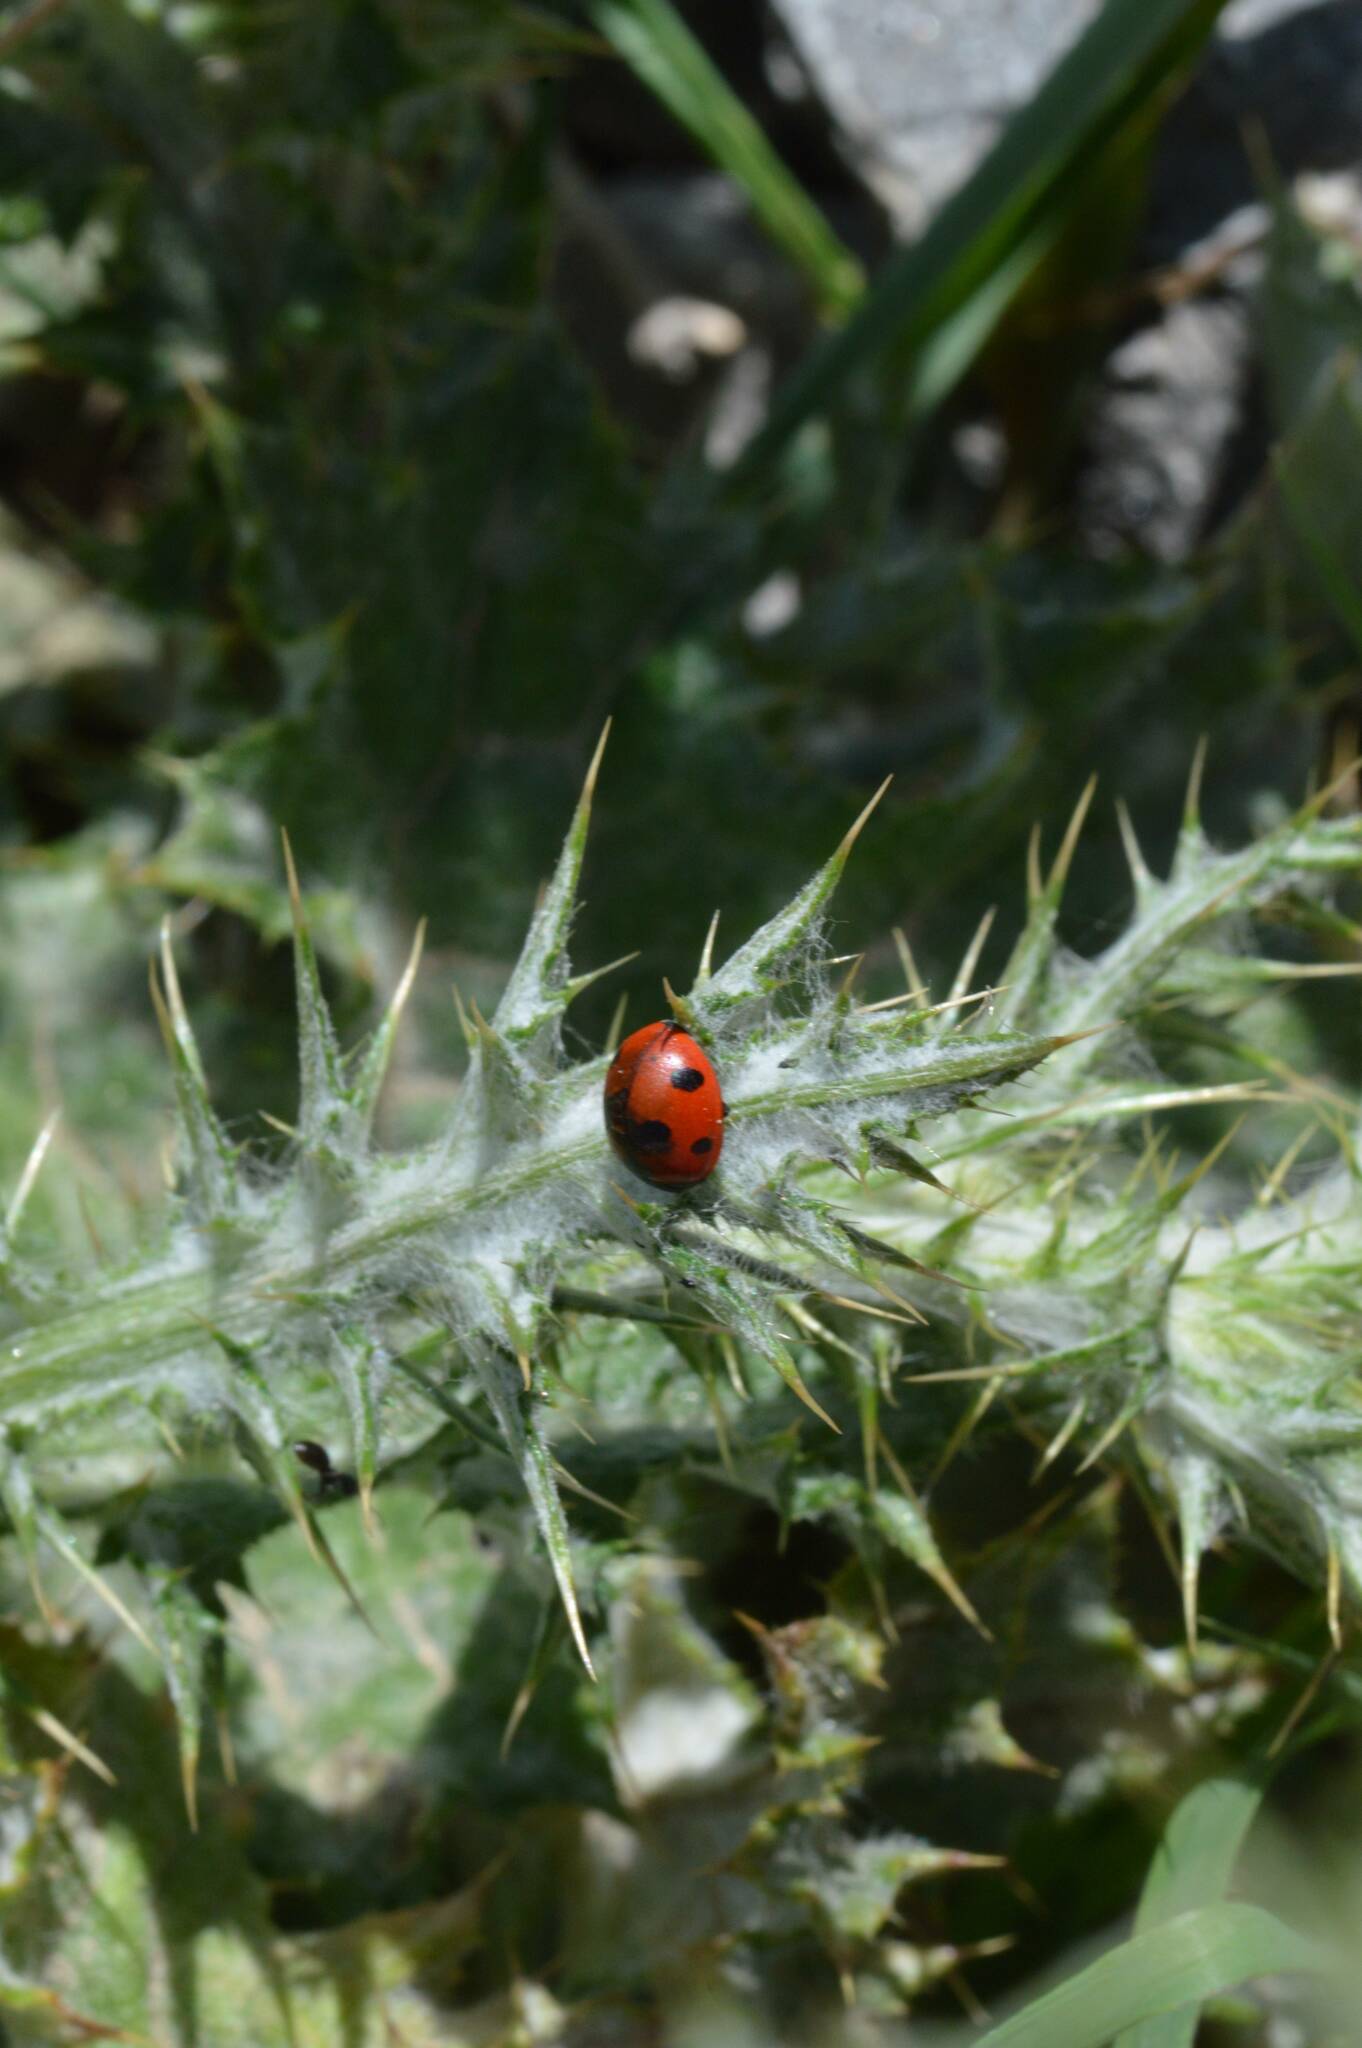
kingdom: Animalia
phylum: Arthropoda
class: Insecta
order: Coleoptera
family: Coccinellidae
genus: Coccinella
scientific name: Coccinella algerica
